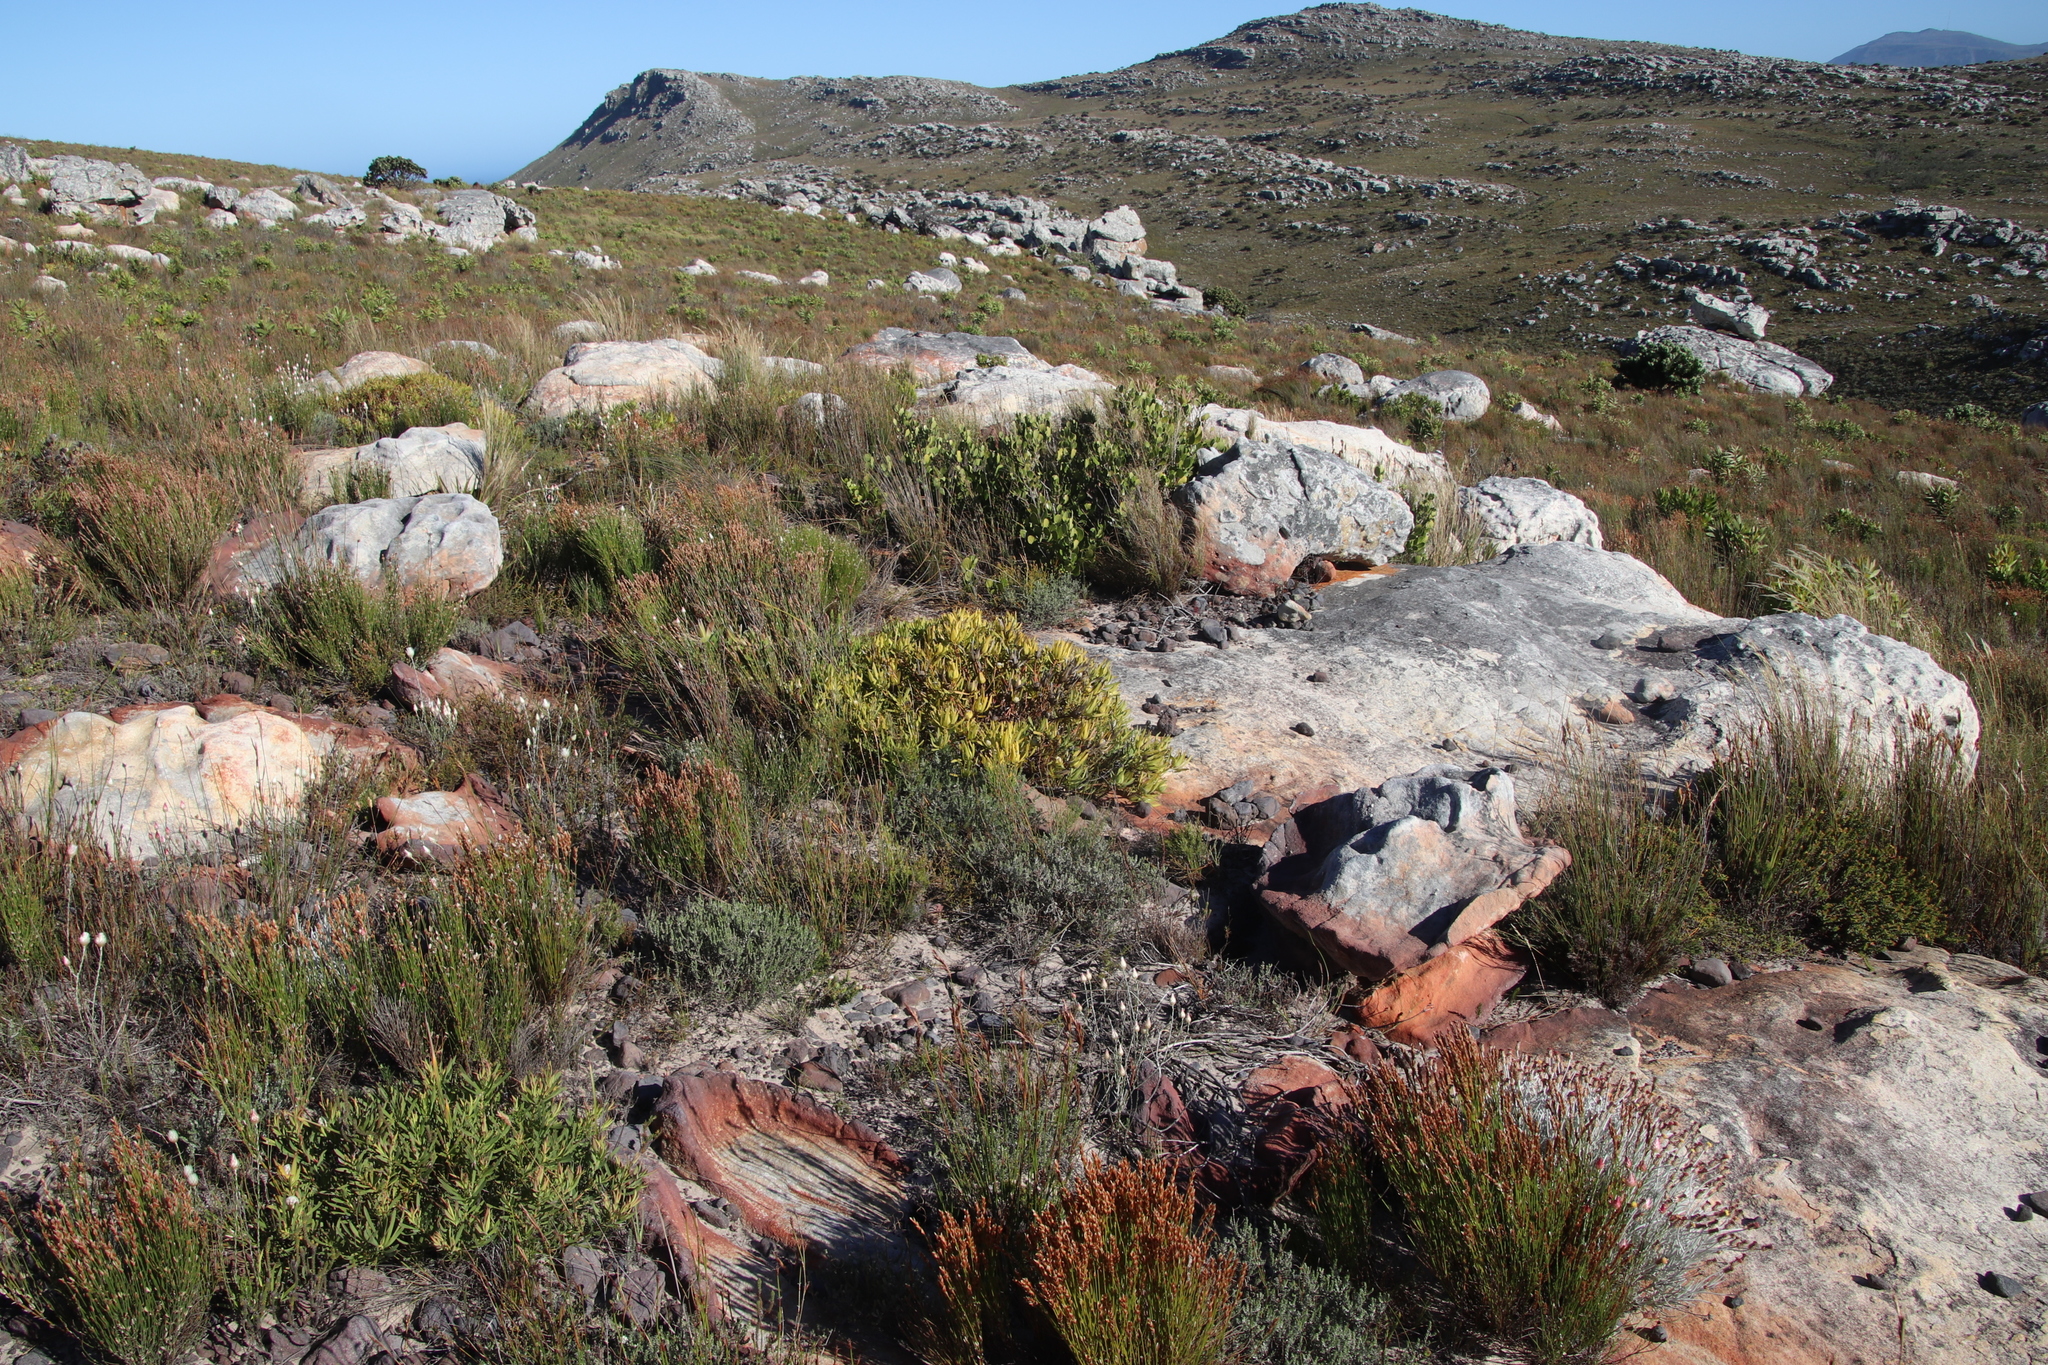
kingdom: Plantae
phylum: Tracheophyta
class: Magnoliopsida
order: Proteales
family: Proteaceae
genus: Leucadendron
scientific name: Leucadendron salignum
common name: Common sunshine conebush
